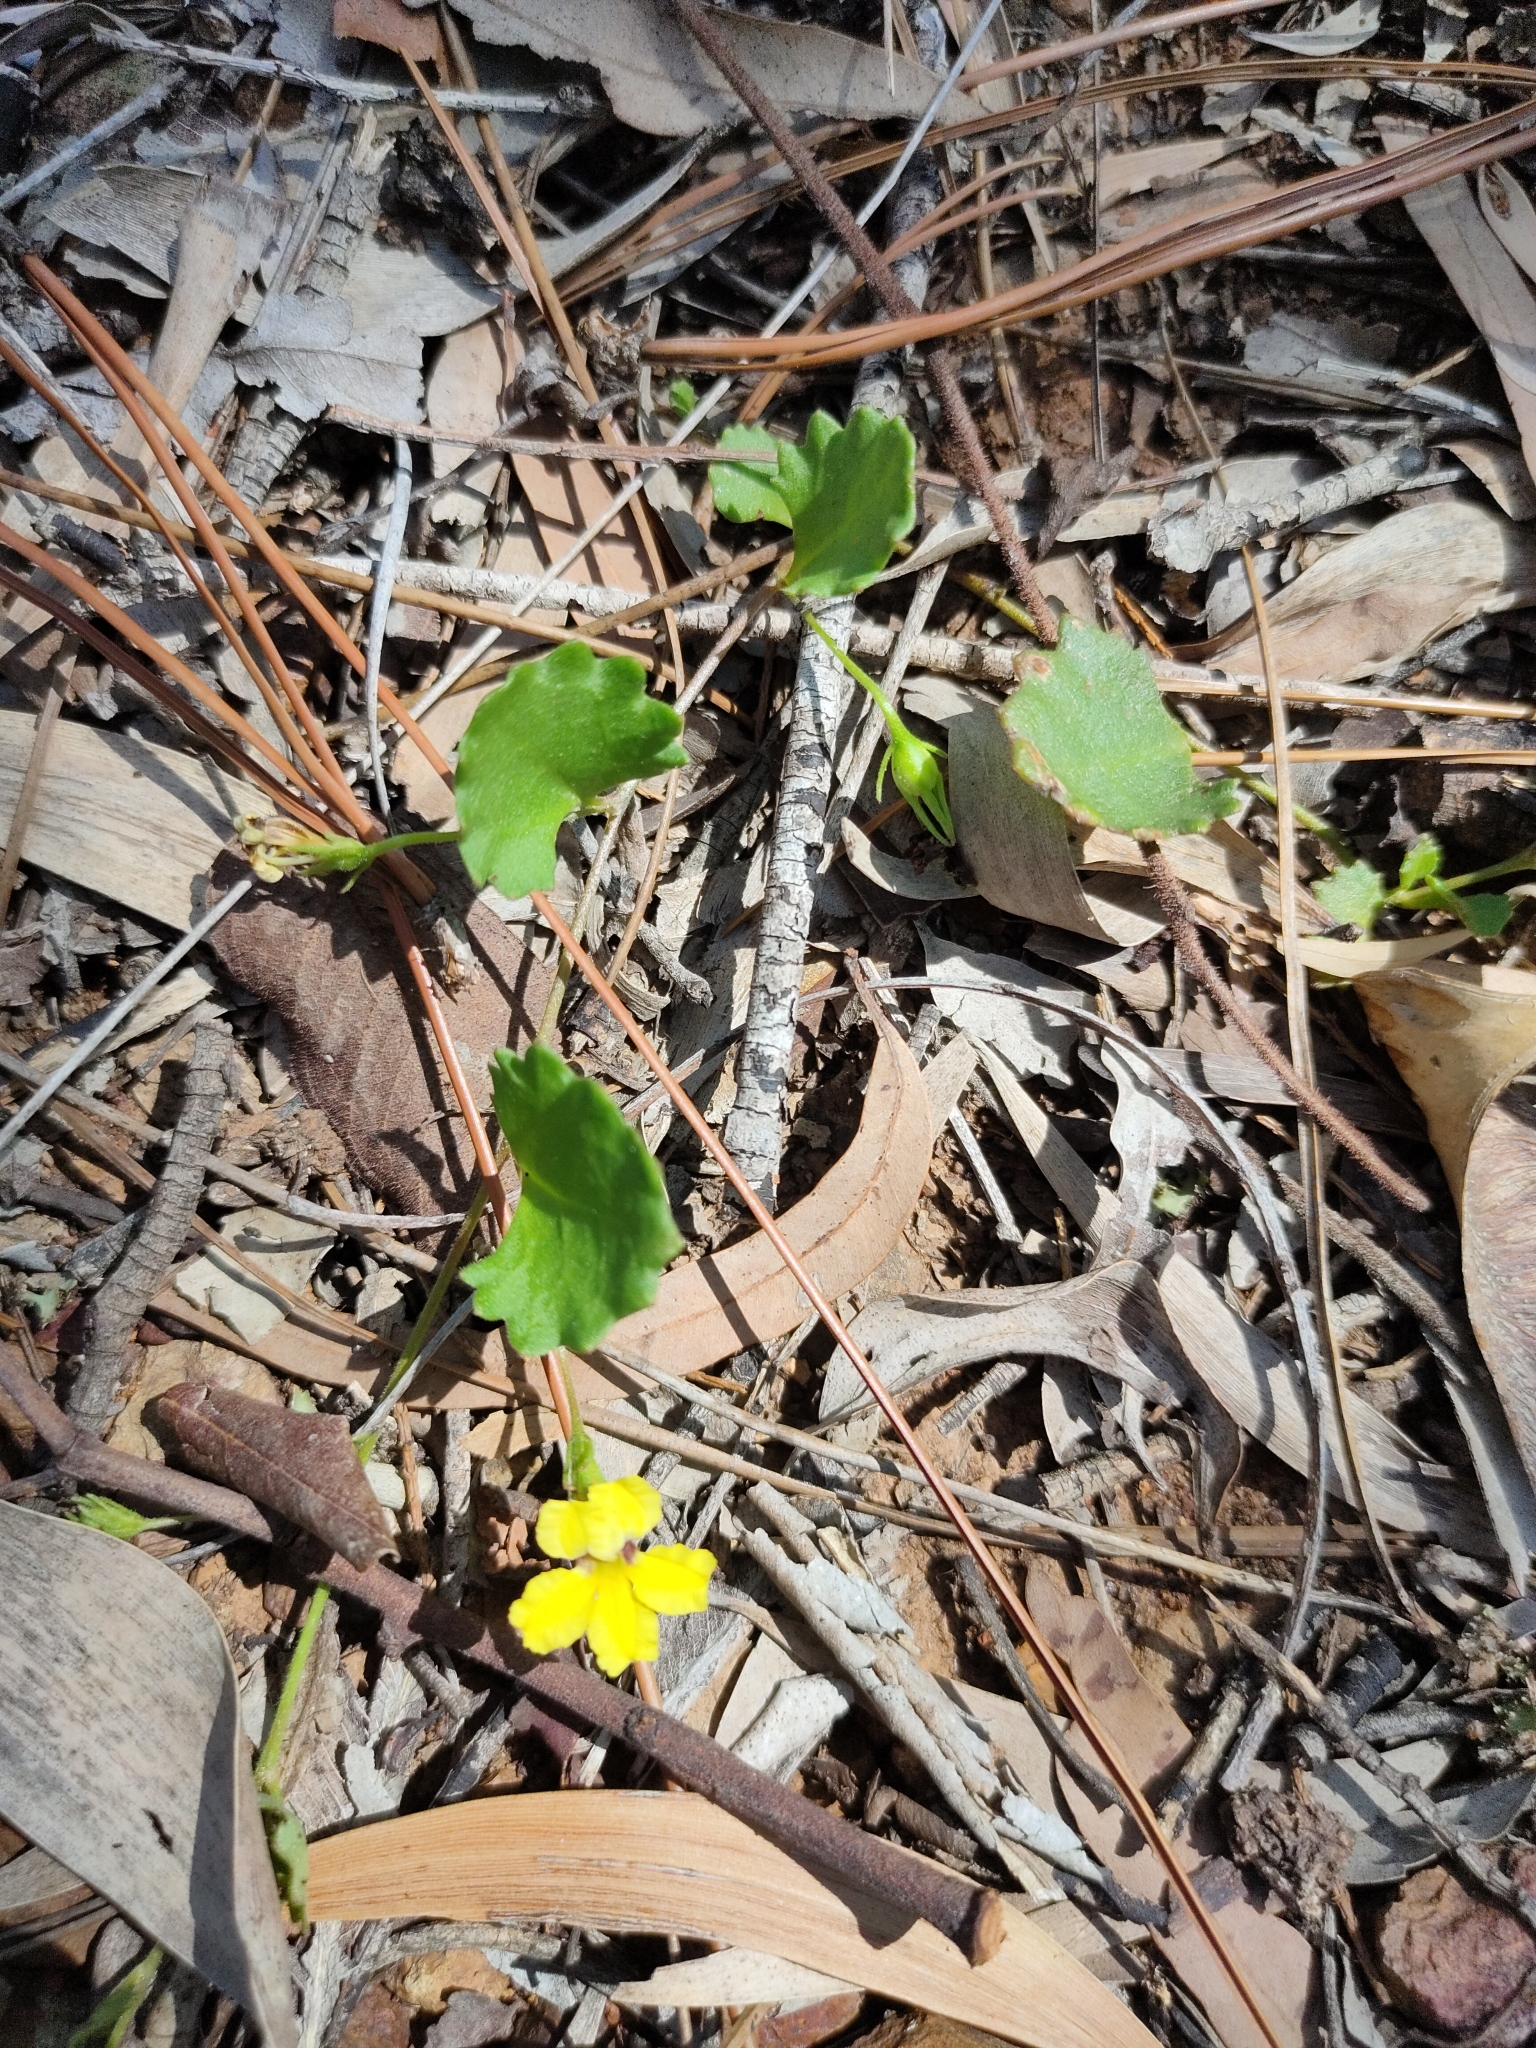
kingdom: Plantae
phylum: Tracheophyta
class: Magnoliopsida
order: Asterales
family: Goodeniaceae
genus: Goodenia
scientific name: Goodenia rotundifolia
